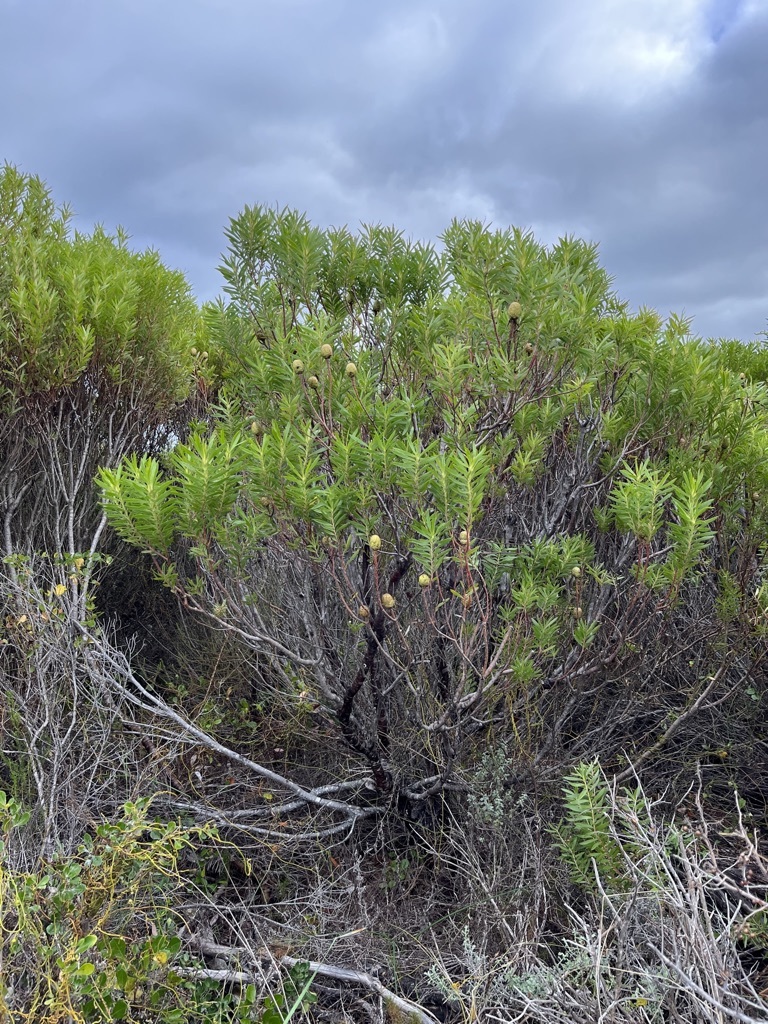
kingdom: Plantae
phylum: Tracheophyta
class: Magnoliopsida
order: Proteales
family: Proteaceae
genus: Leucadendron
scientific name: Leucadendron coniferum
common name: Dune conebush
